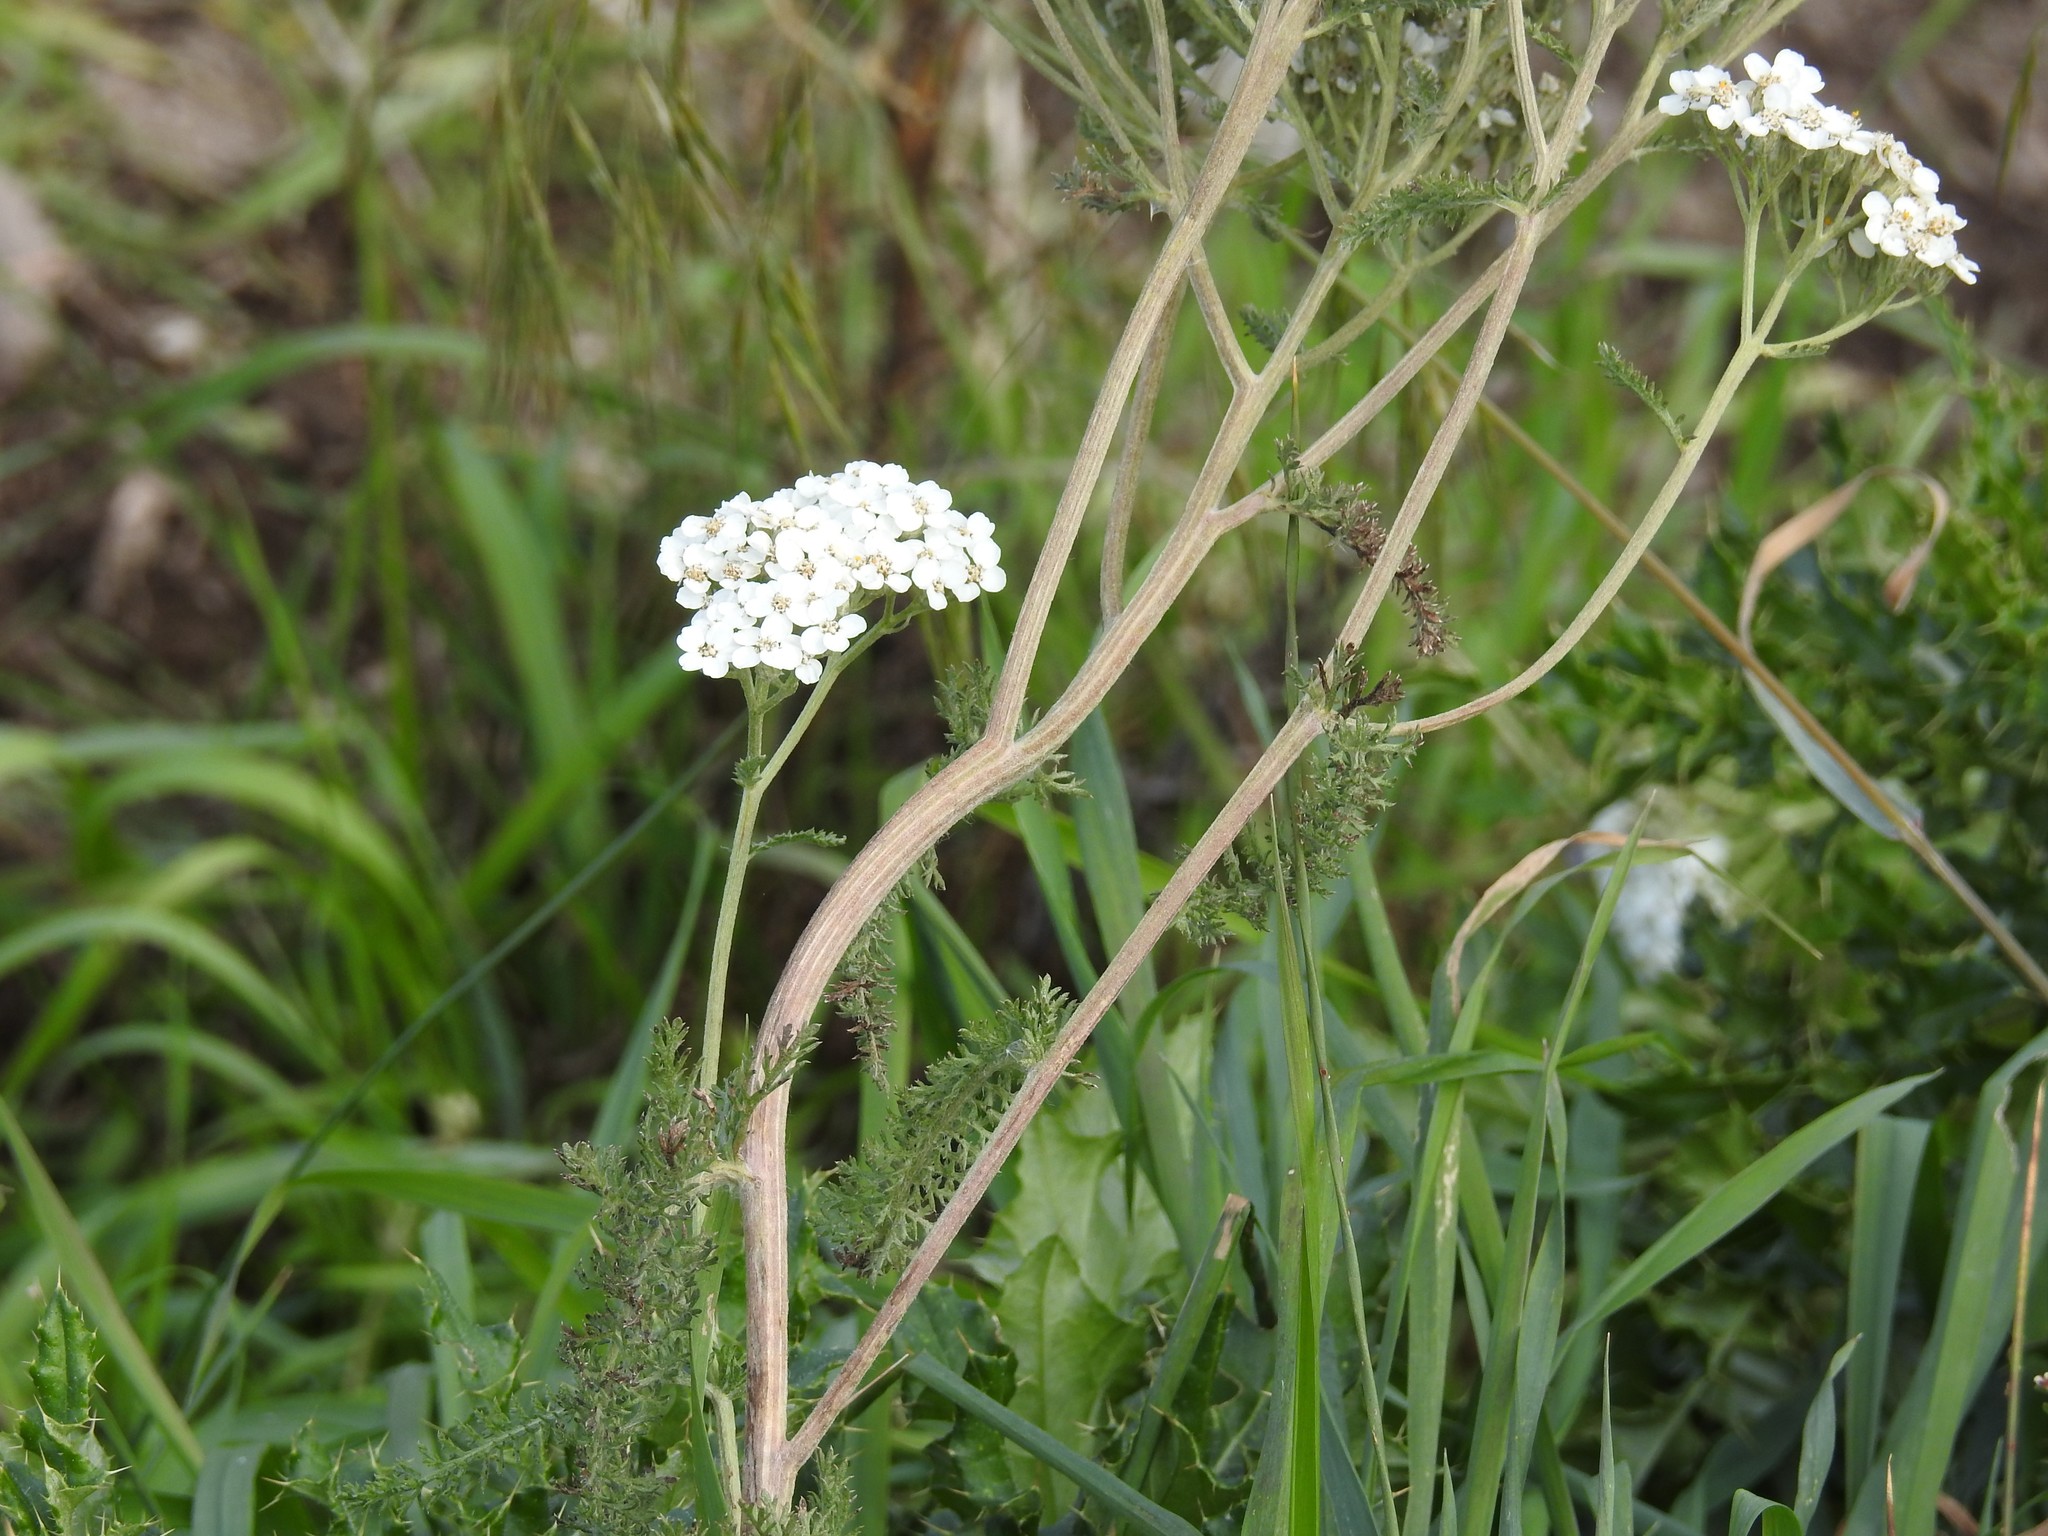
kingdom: Plantae
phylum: Tracheophyta
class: Magnoliopsida
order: Asterales
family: Asteraceae
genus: Achillea
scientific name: Achillea millefolium
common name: Yarrow
